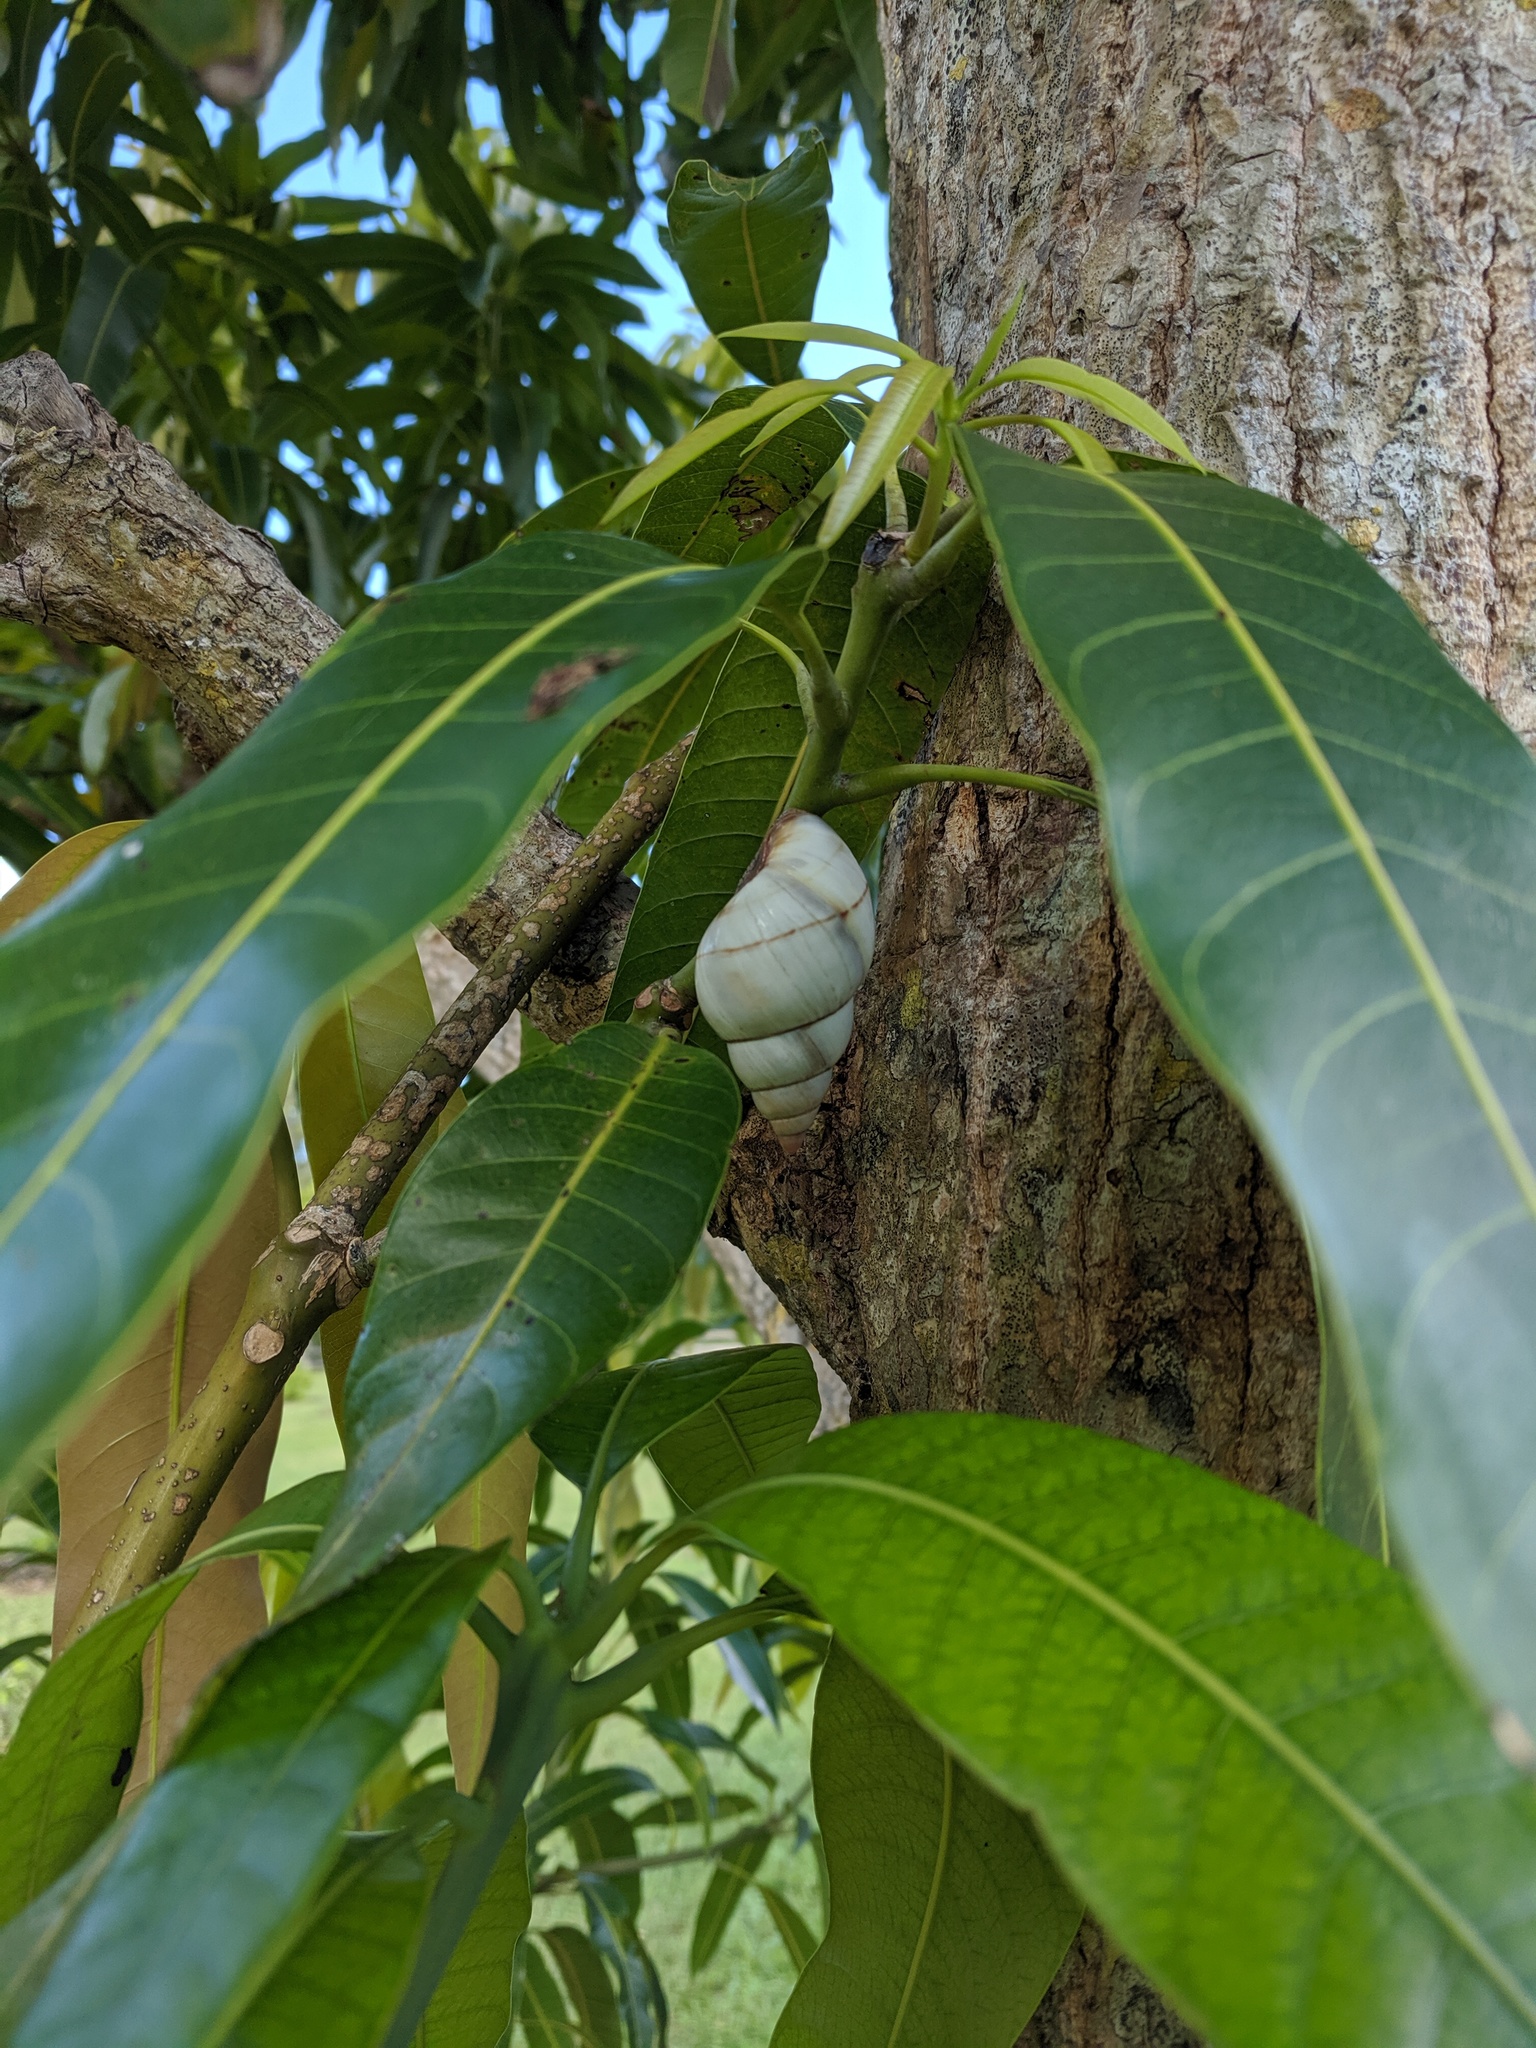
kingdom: Animalia
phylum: Mollusca
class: Gastropoda
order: Stylommatophora
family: Orthalicidae
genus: Liguus
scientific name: Liguus fasciatus
